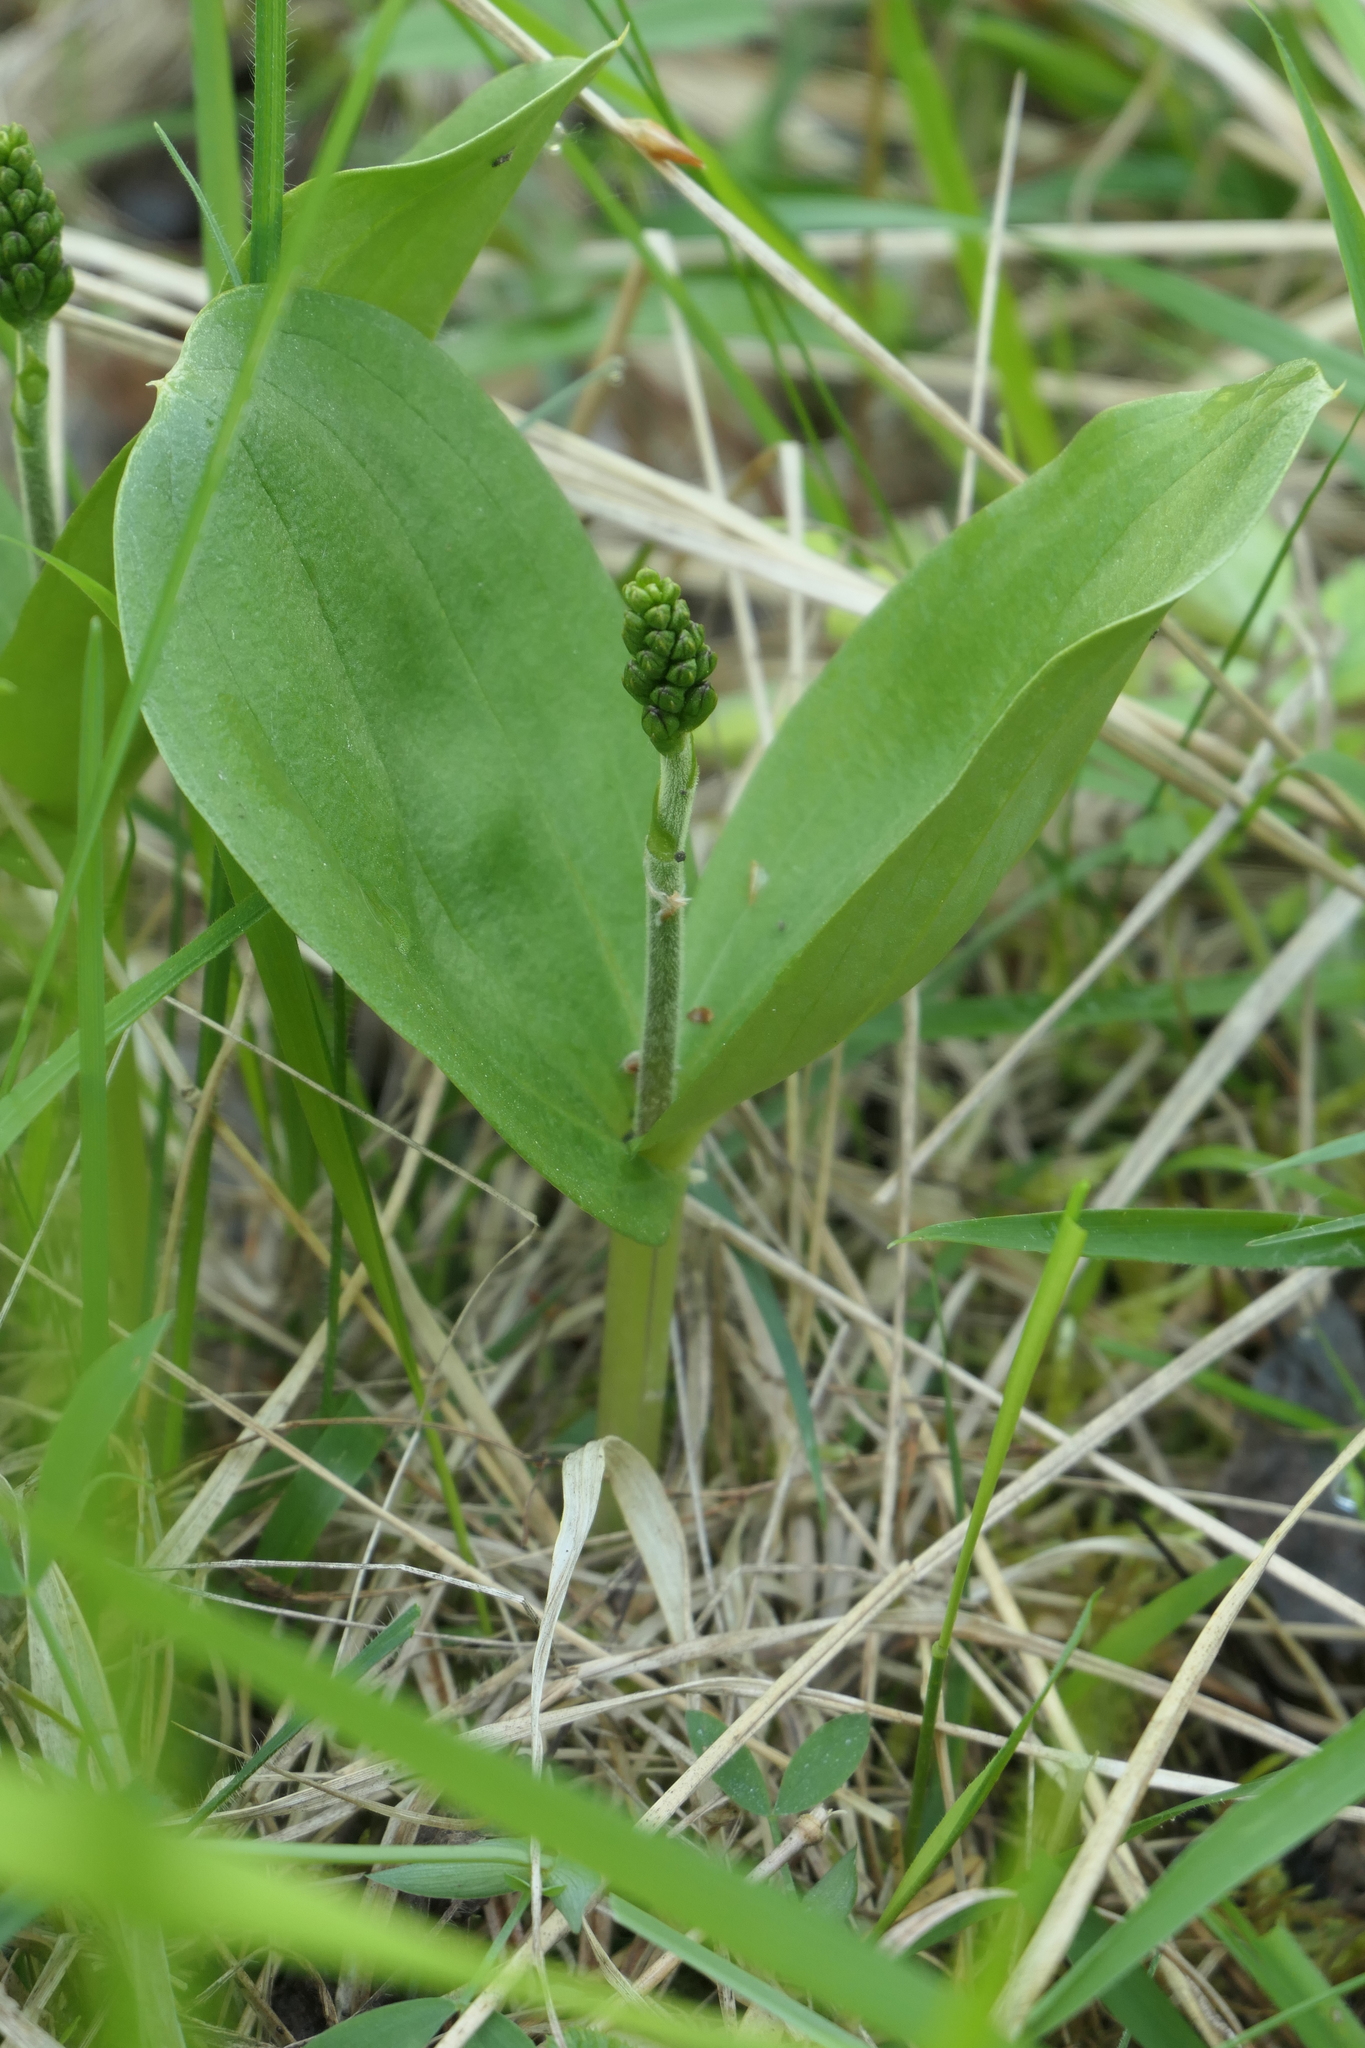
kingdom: Plantae
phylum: Tracheophyta
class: Liliopsida
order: Asparagales
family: Orchidaceae
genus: Neottia
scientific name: Neottia ovata
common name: Common twayblade
